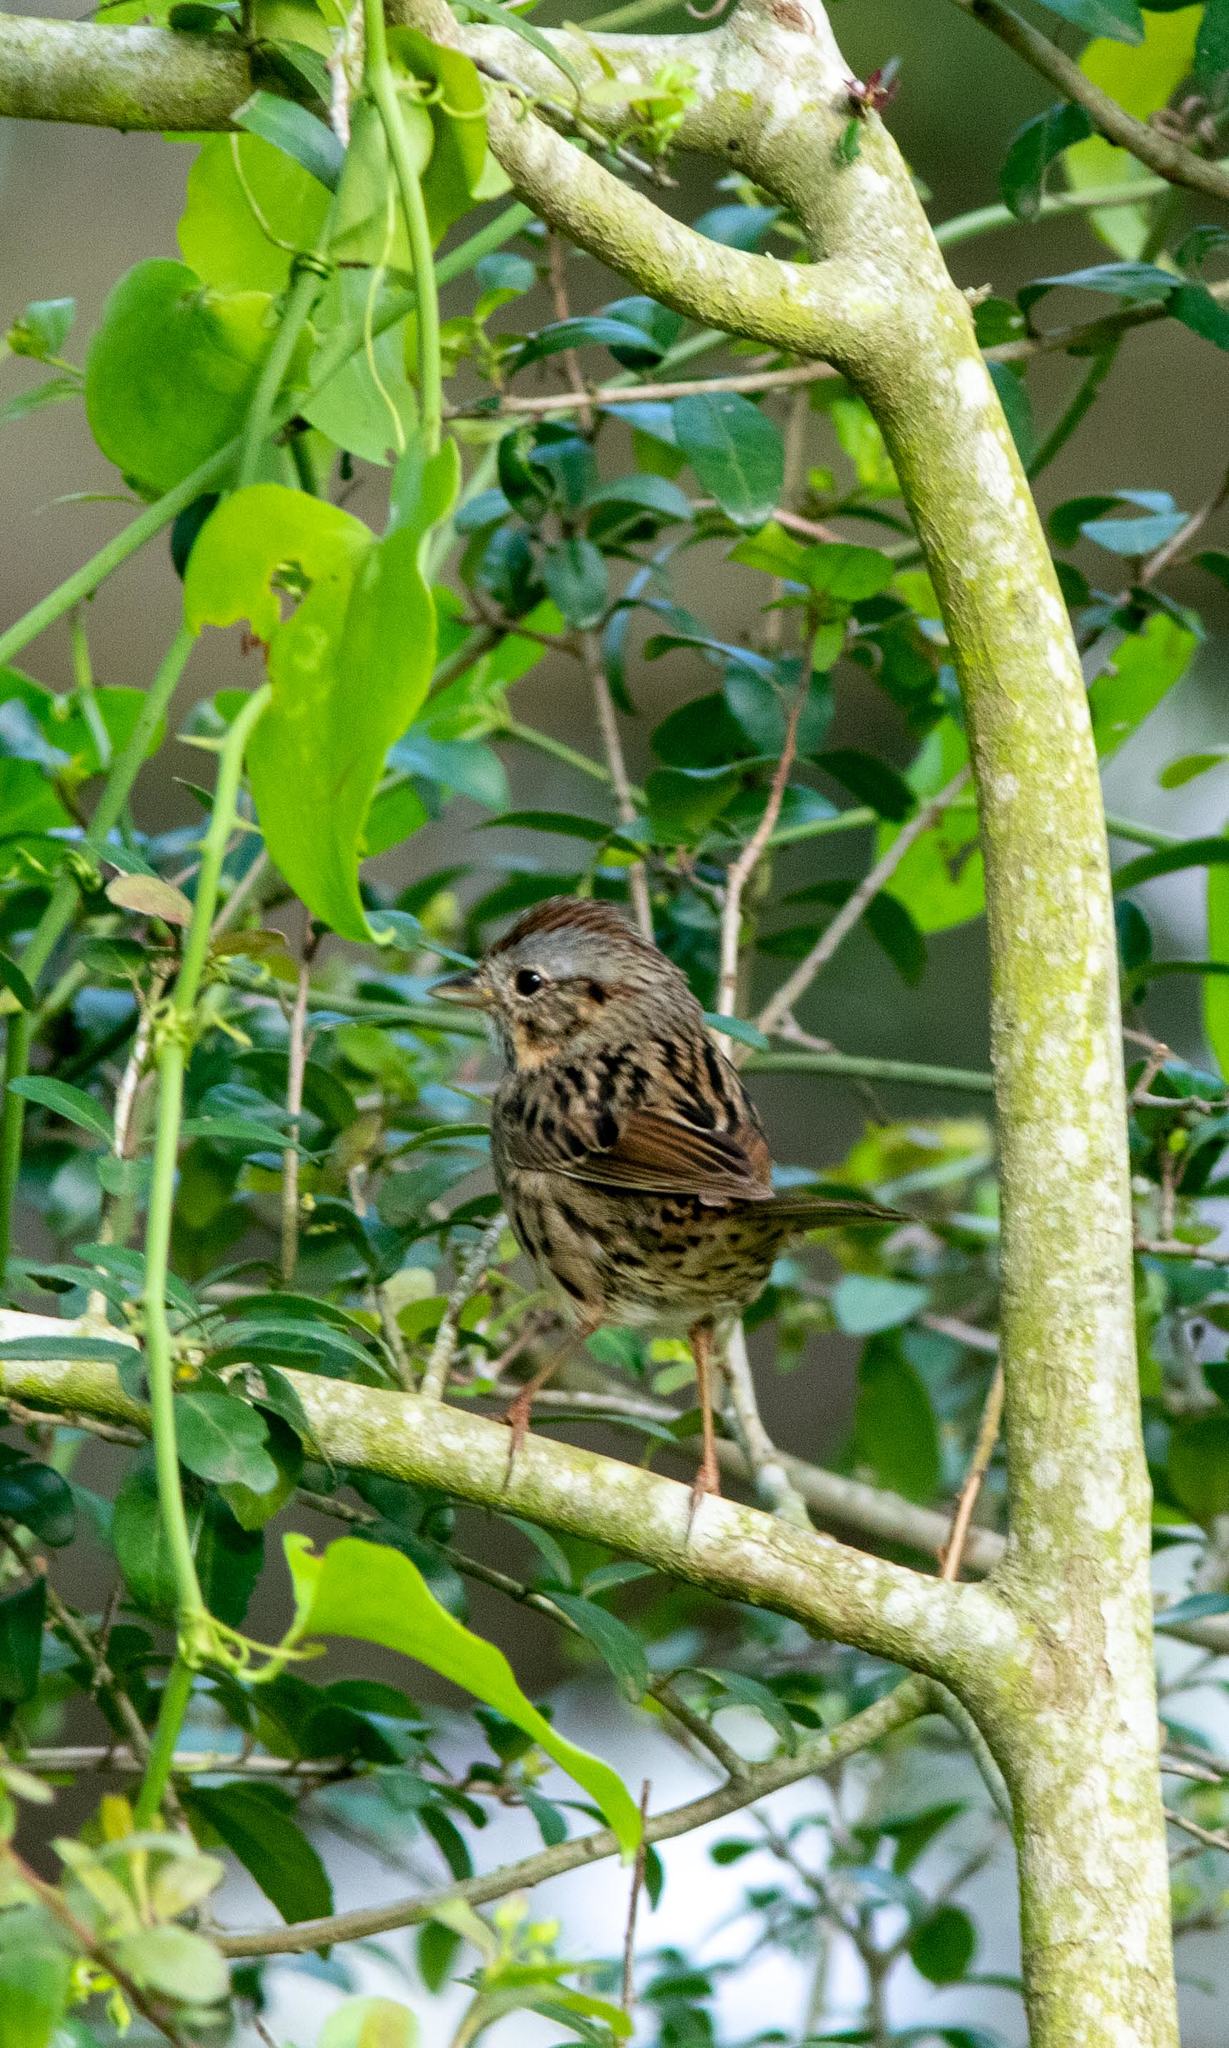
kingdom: Animalia
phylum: Chordata
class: Aves
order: Passeriformes
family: Passerellidae
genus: Melospiza
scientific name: Melospiza lincolnii
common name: Lincoln's sparrow
